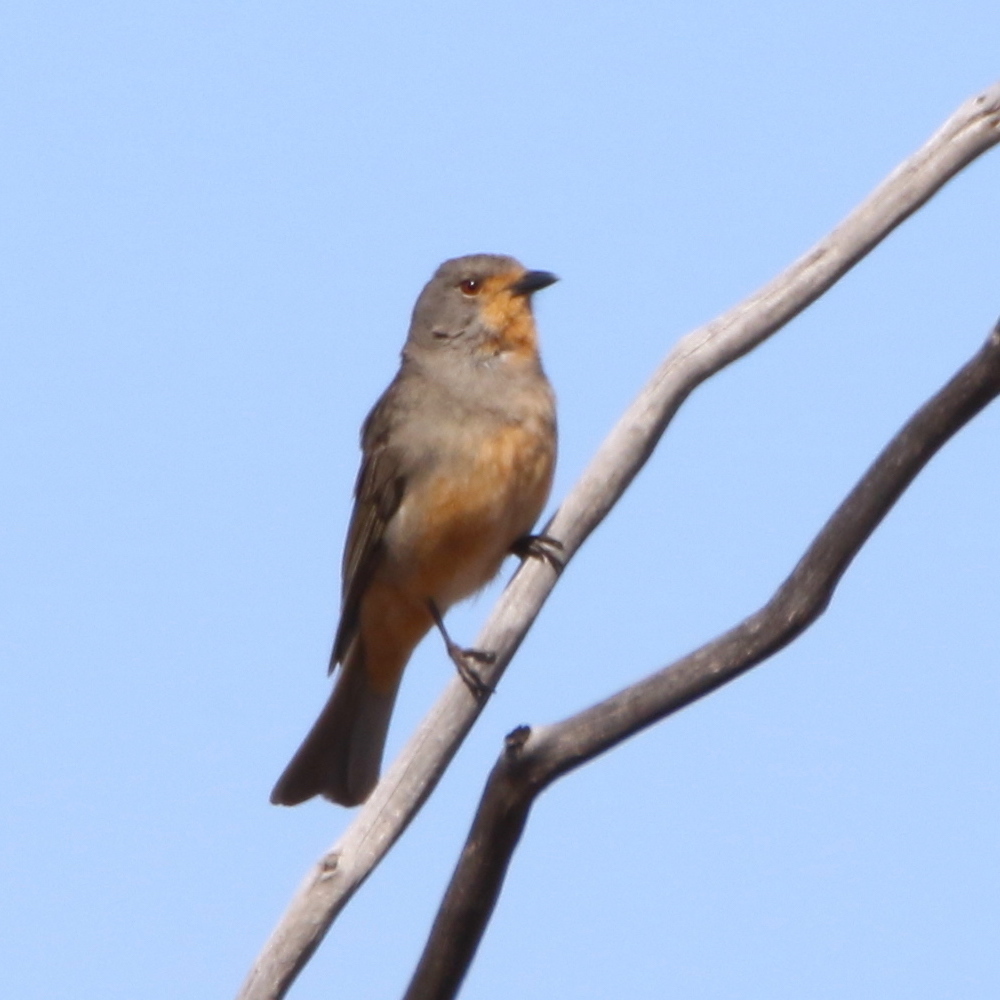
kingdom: Animalia
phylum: Chordata
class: Aves
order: Passeriformes
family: Pachycephalidae
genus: Pachycephala
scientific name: Pachycephala rufogularis
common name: Red-lored whistler
